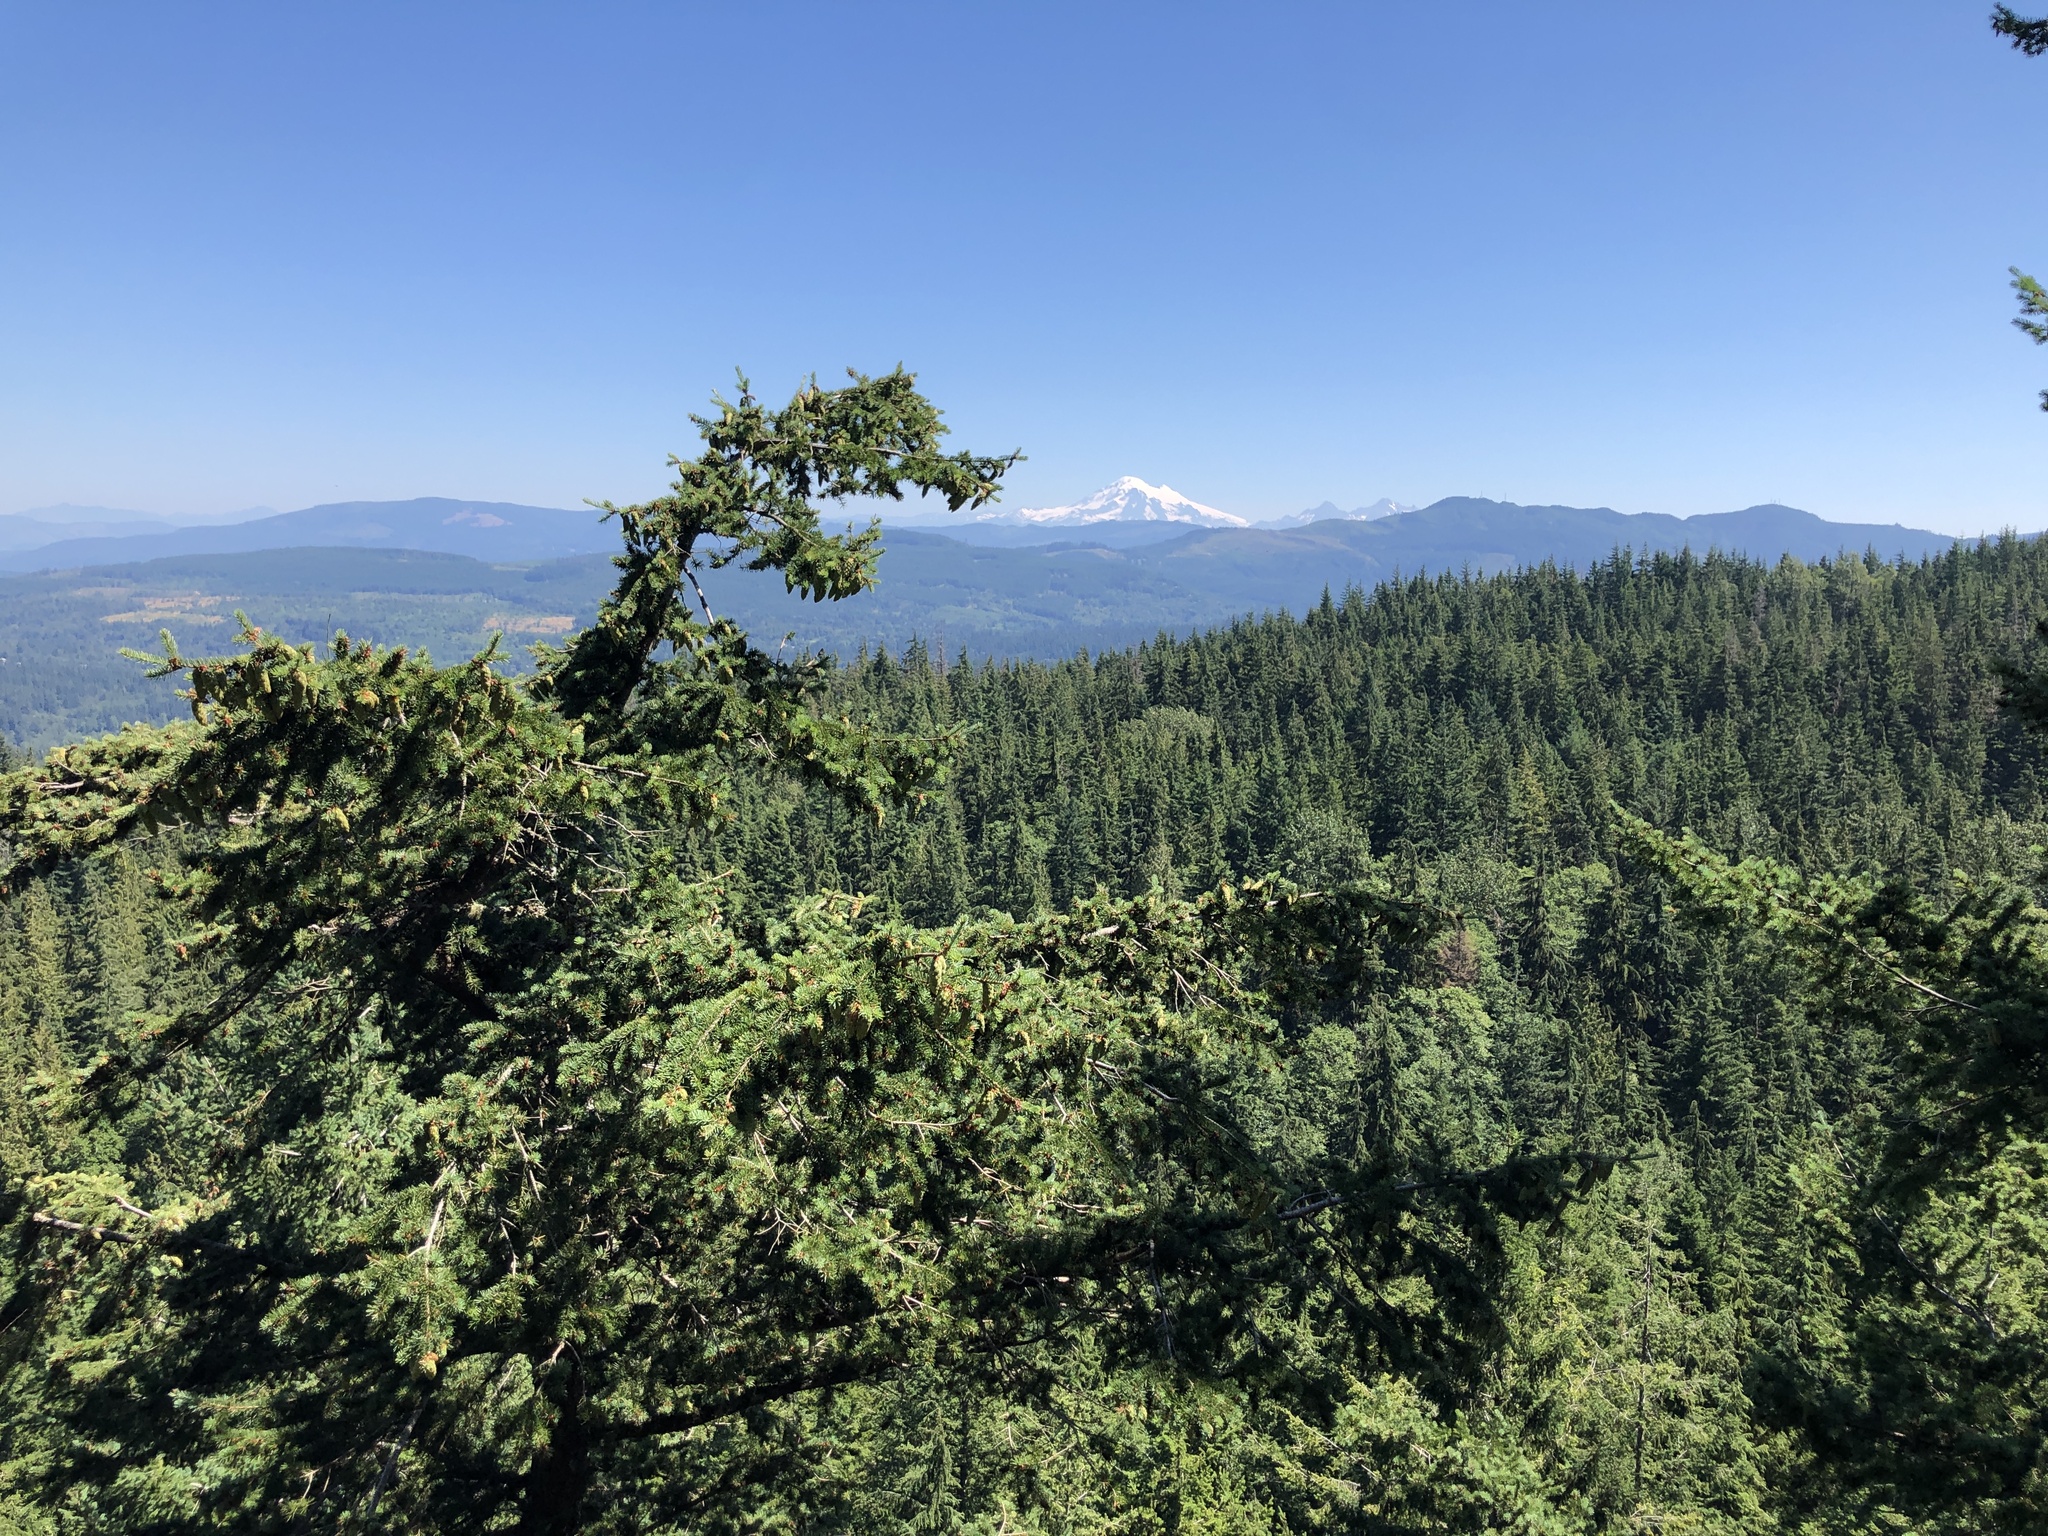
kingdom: Plantae
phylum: Tracheophyta
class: Pinopsida
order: Pinales
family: Pinaceae
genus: Pseudotsuga
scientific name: Pseudotsuga menziesii
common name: Douglas fir
